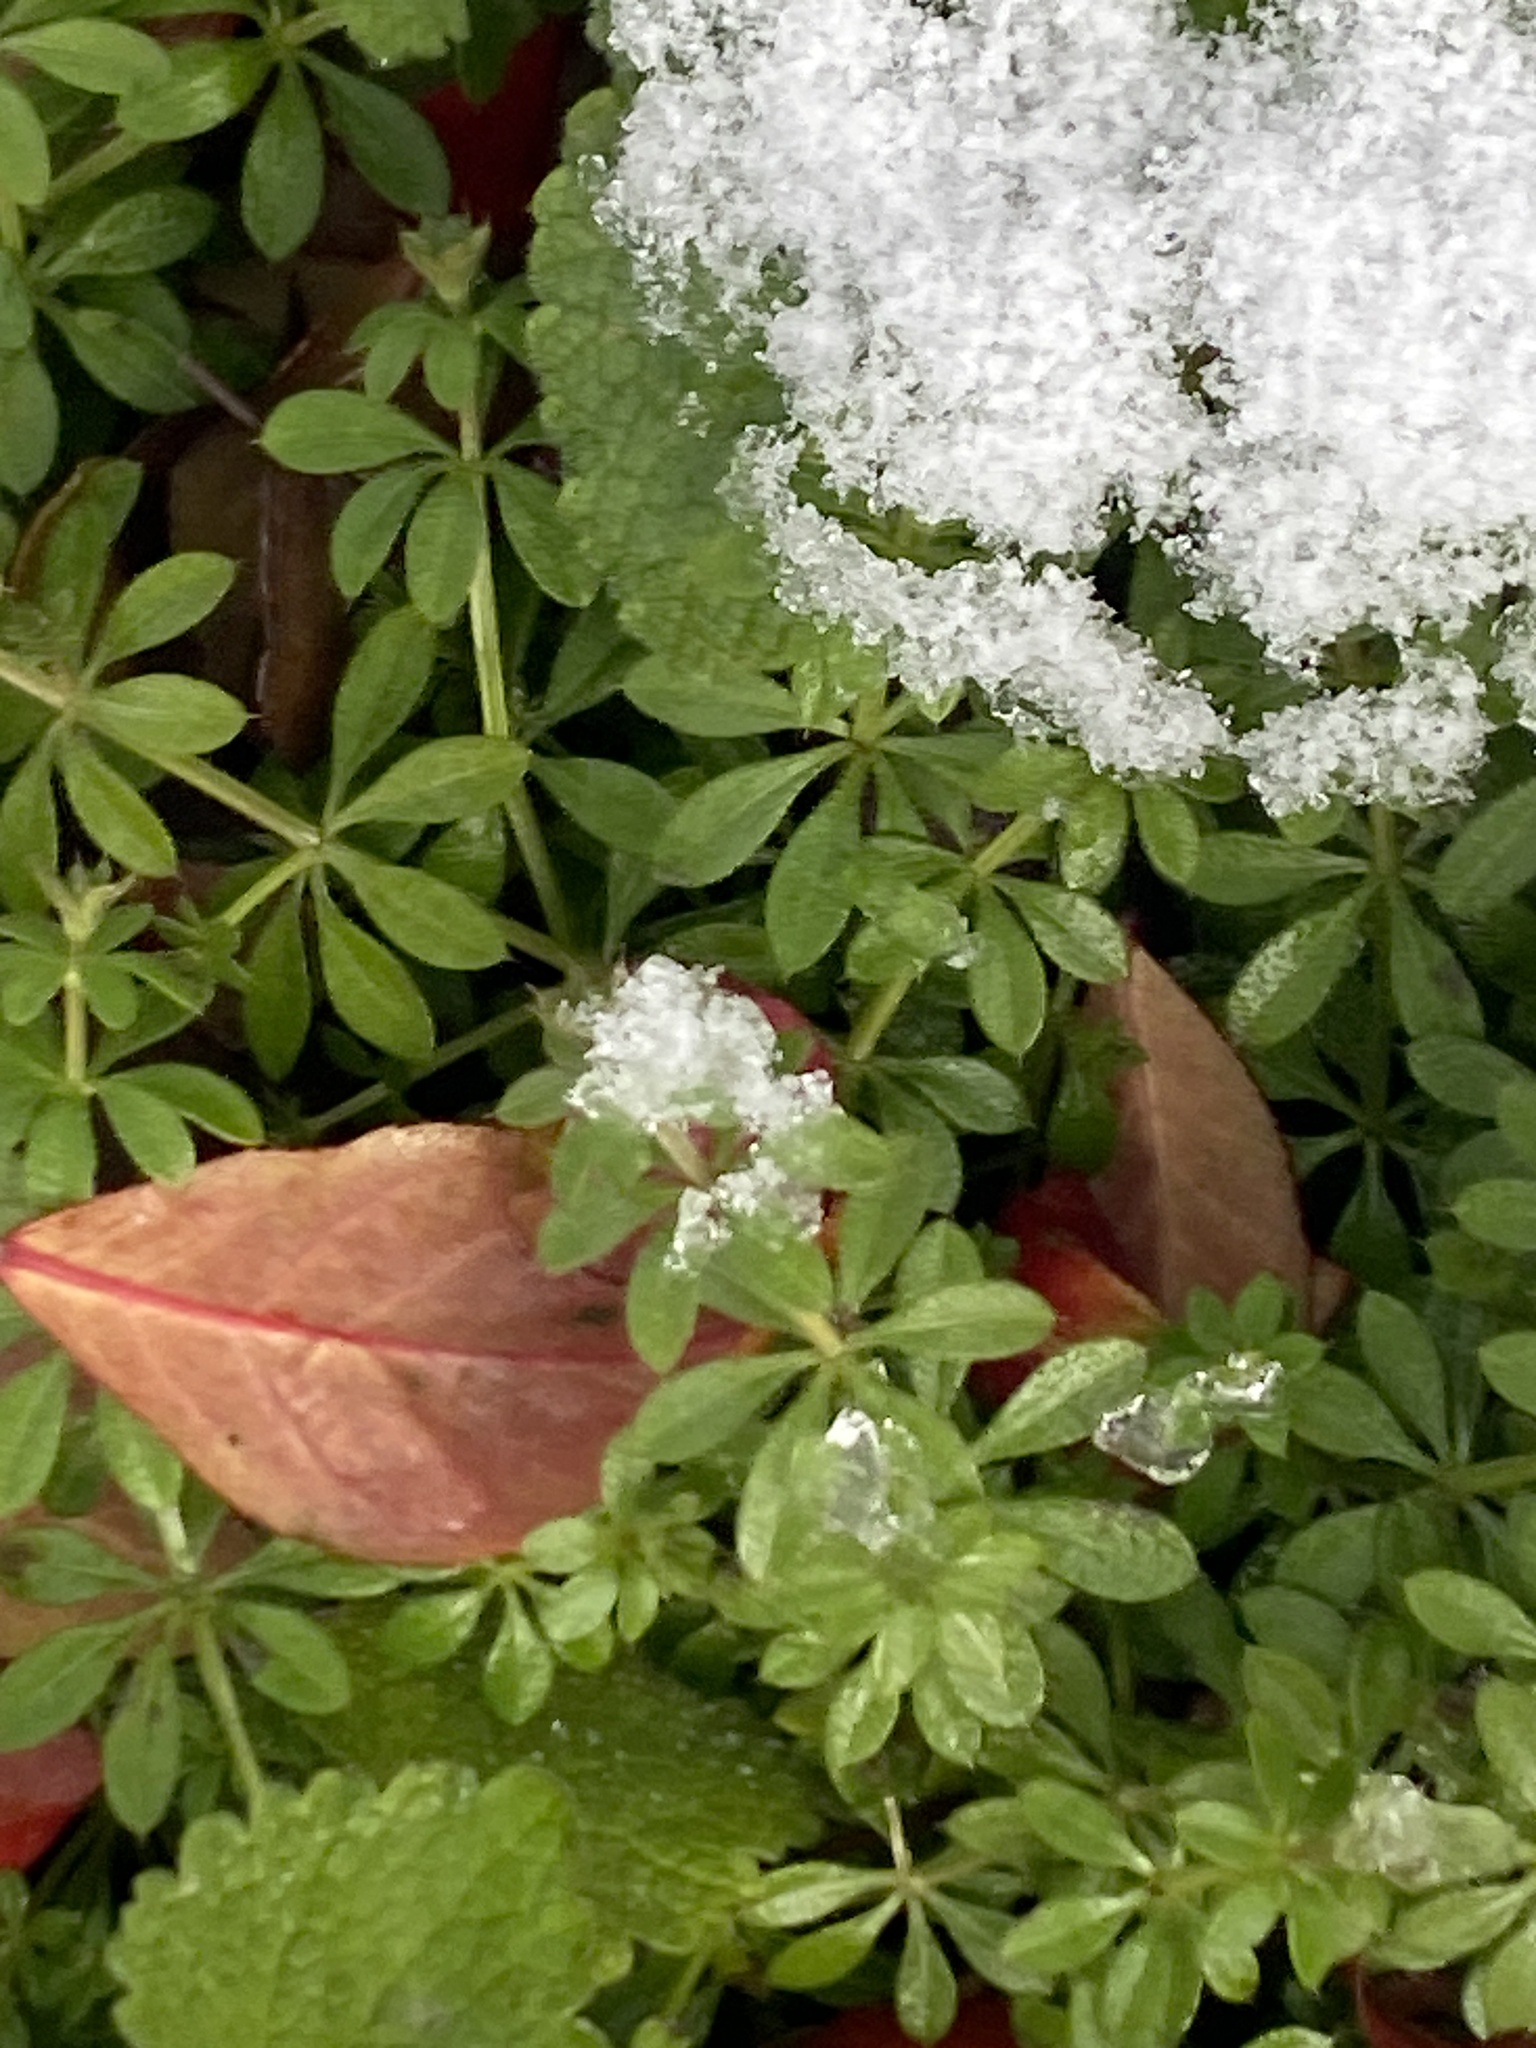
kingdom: Plantae
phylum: Tracheophyta
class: Magnoliopsida
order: Gentianales
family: Rubiaceae
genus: Galium
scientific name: Galium aparine
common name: Cleavers
